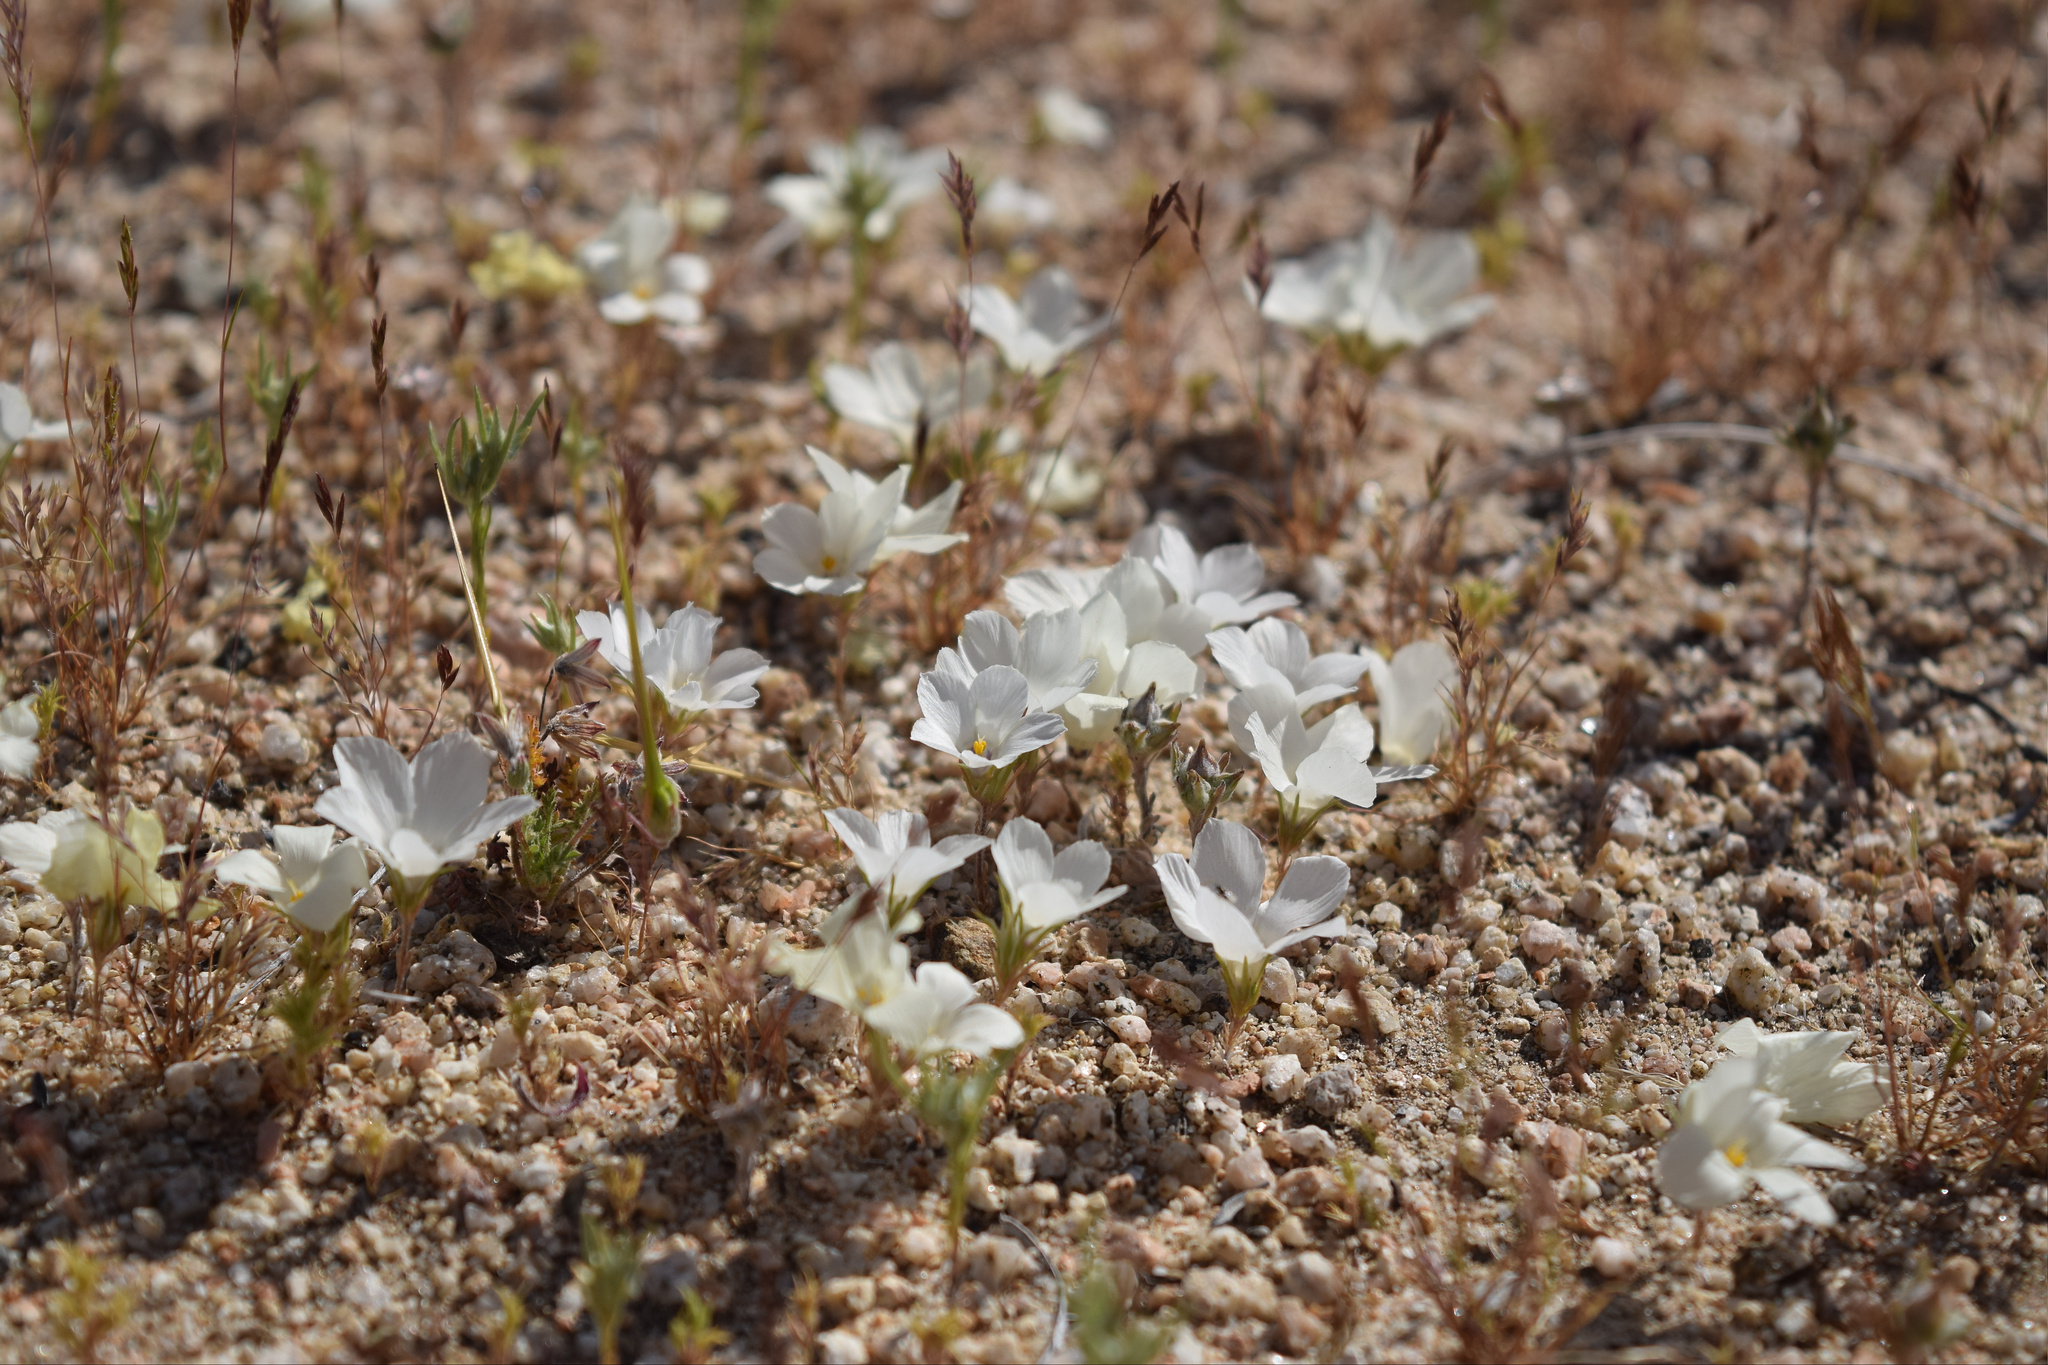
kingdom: Plantae
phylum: Tracheophyta
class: Magnoliopsida
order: Ericales
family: Polemoniaceae
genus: Linanthus
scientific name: Linanthus parryae
